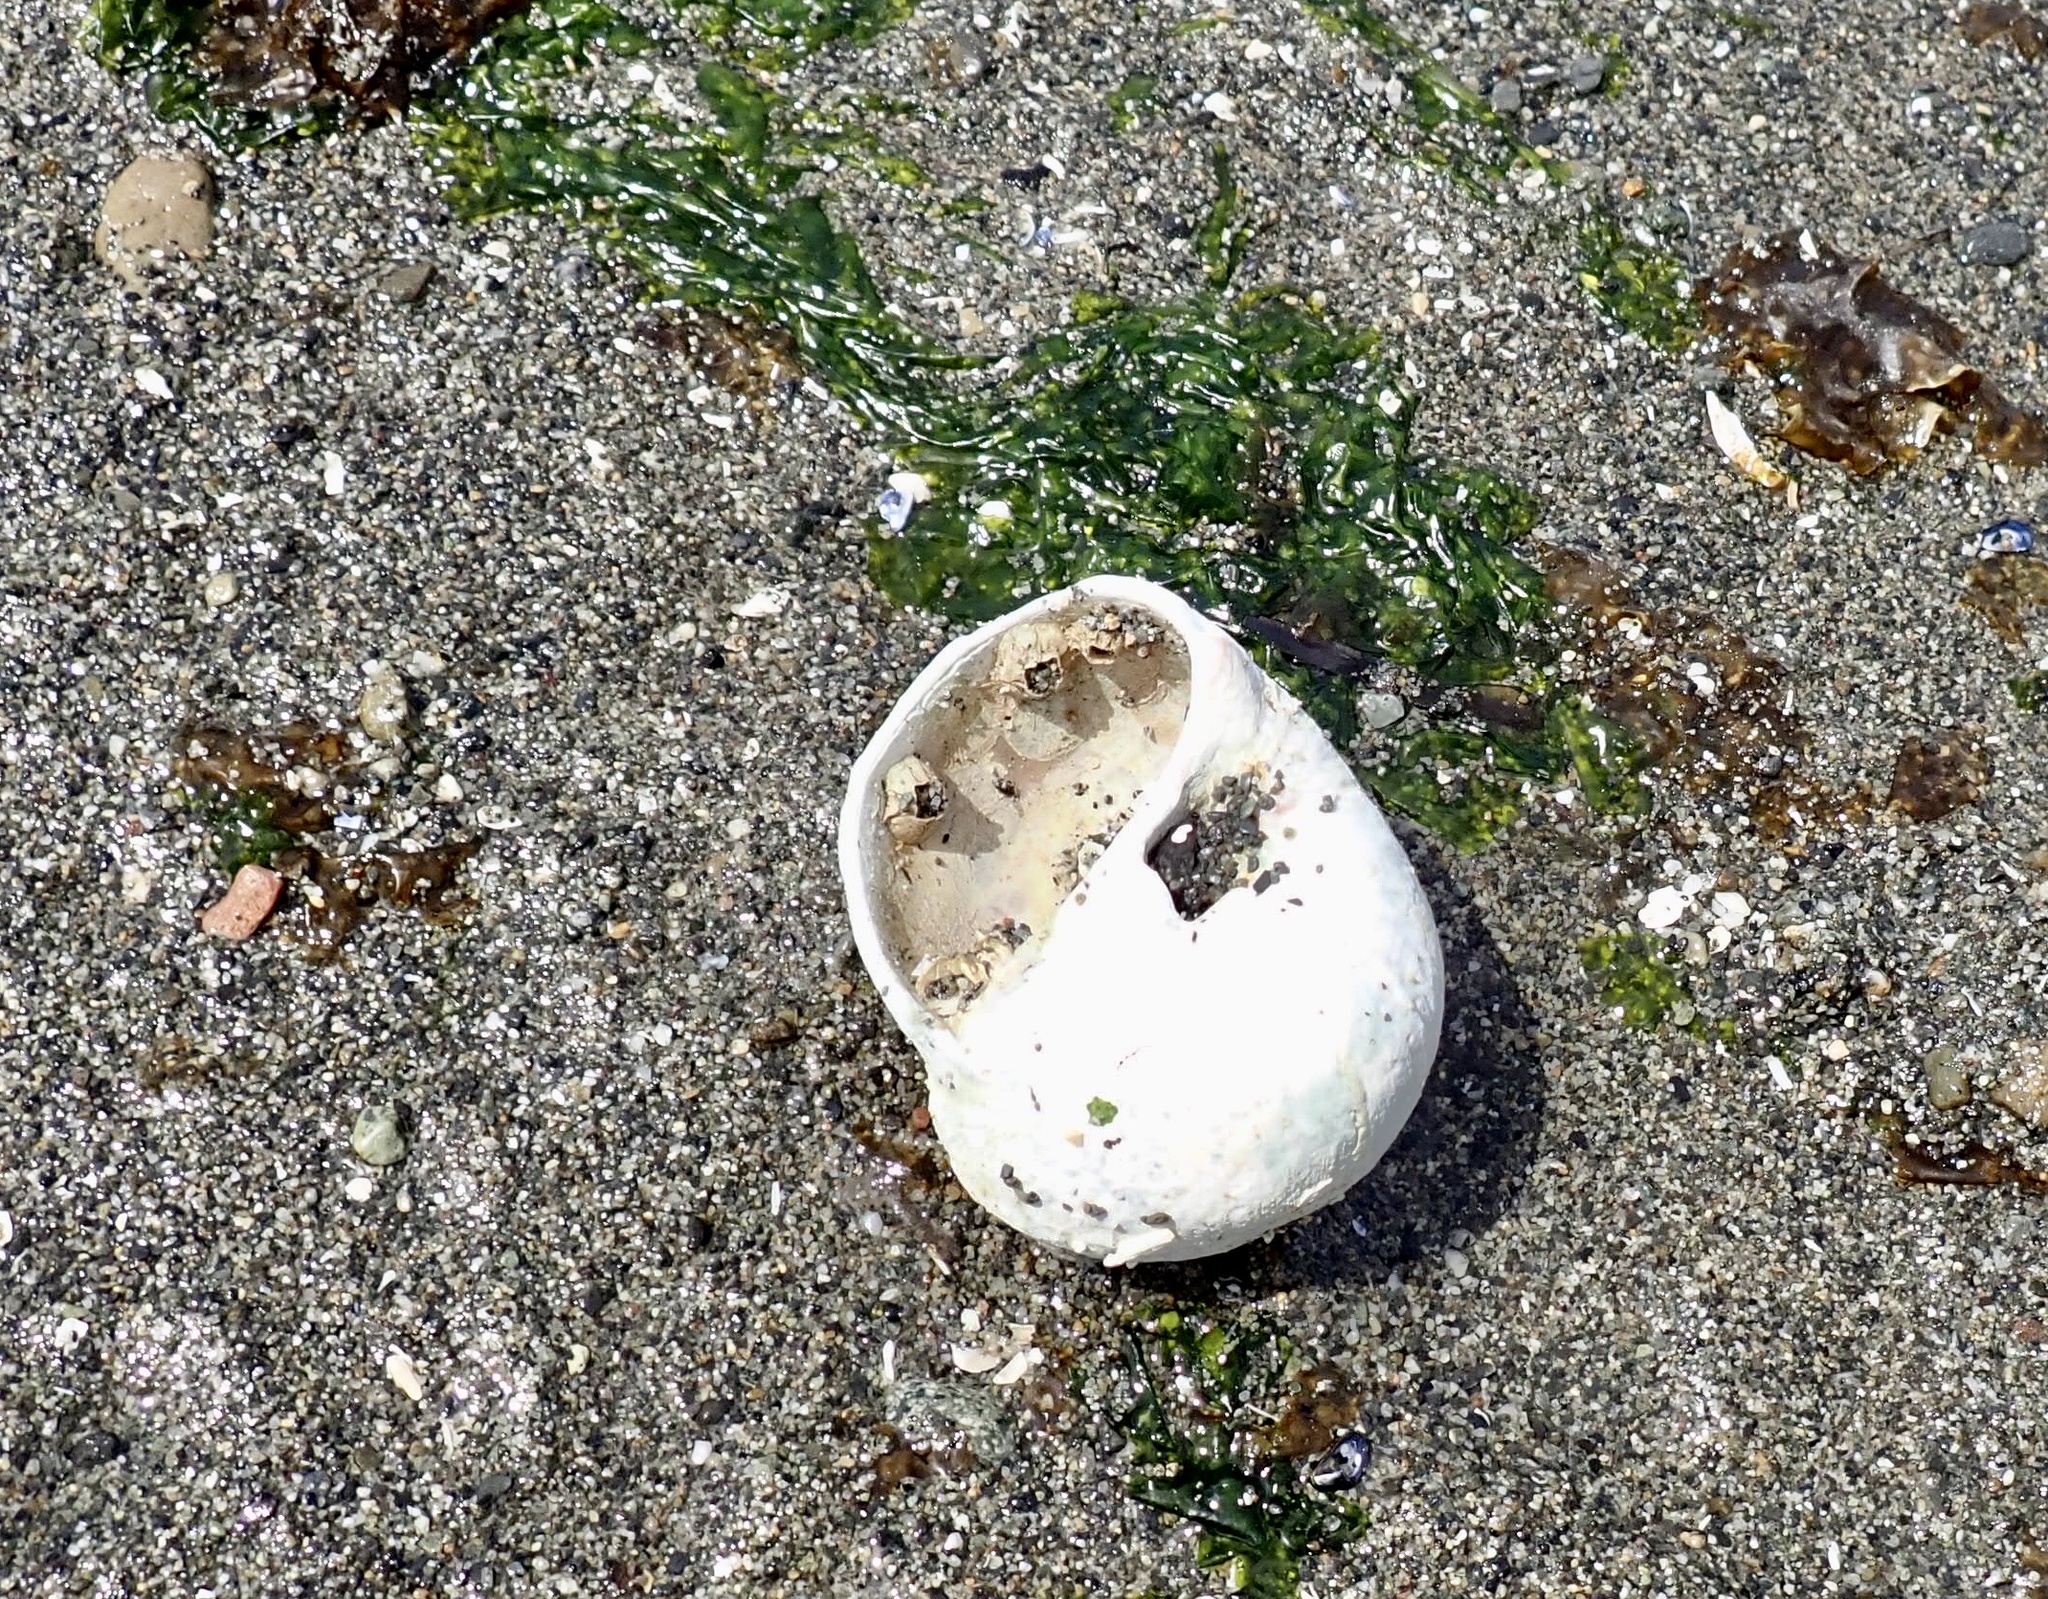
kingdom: Animalia
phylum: Mollusca
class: Gastropoda
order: Littorinimorpha
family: Naticidae
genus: Neverita
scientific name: Neverita lewisii
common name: Lewis' moonsnail
